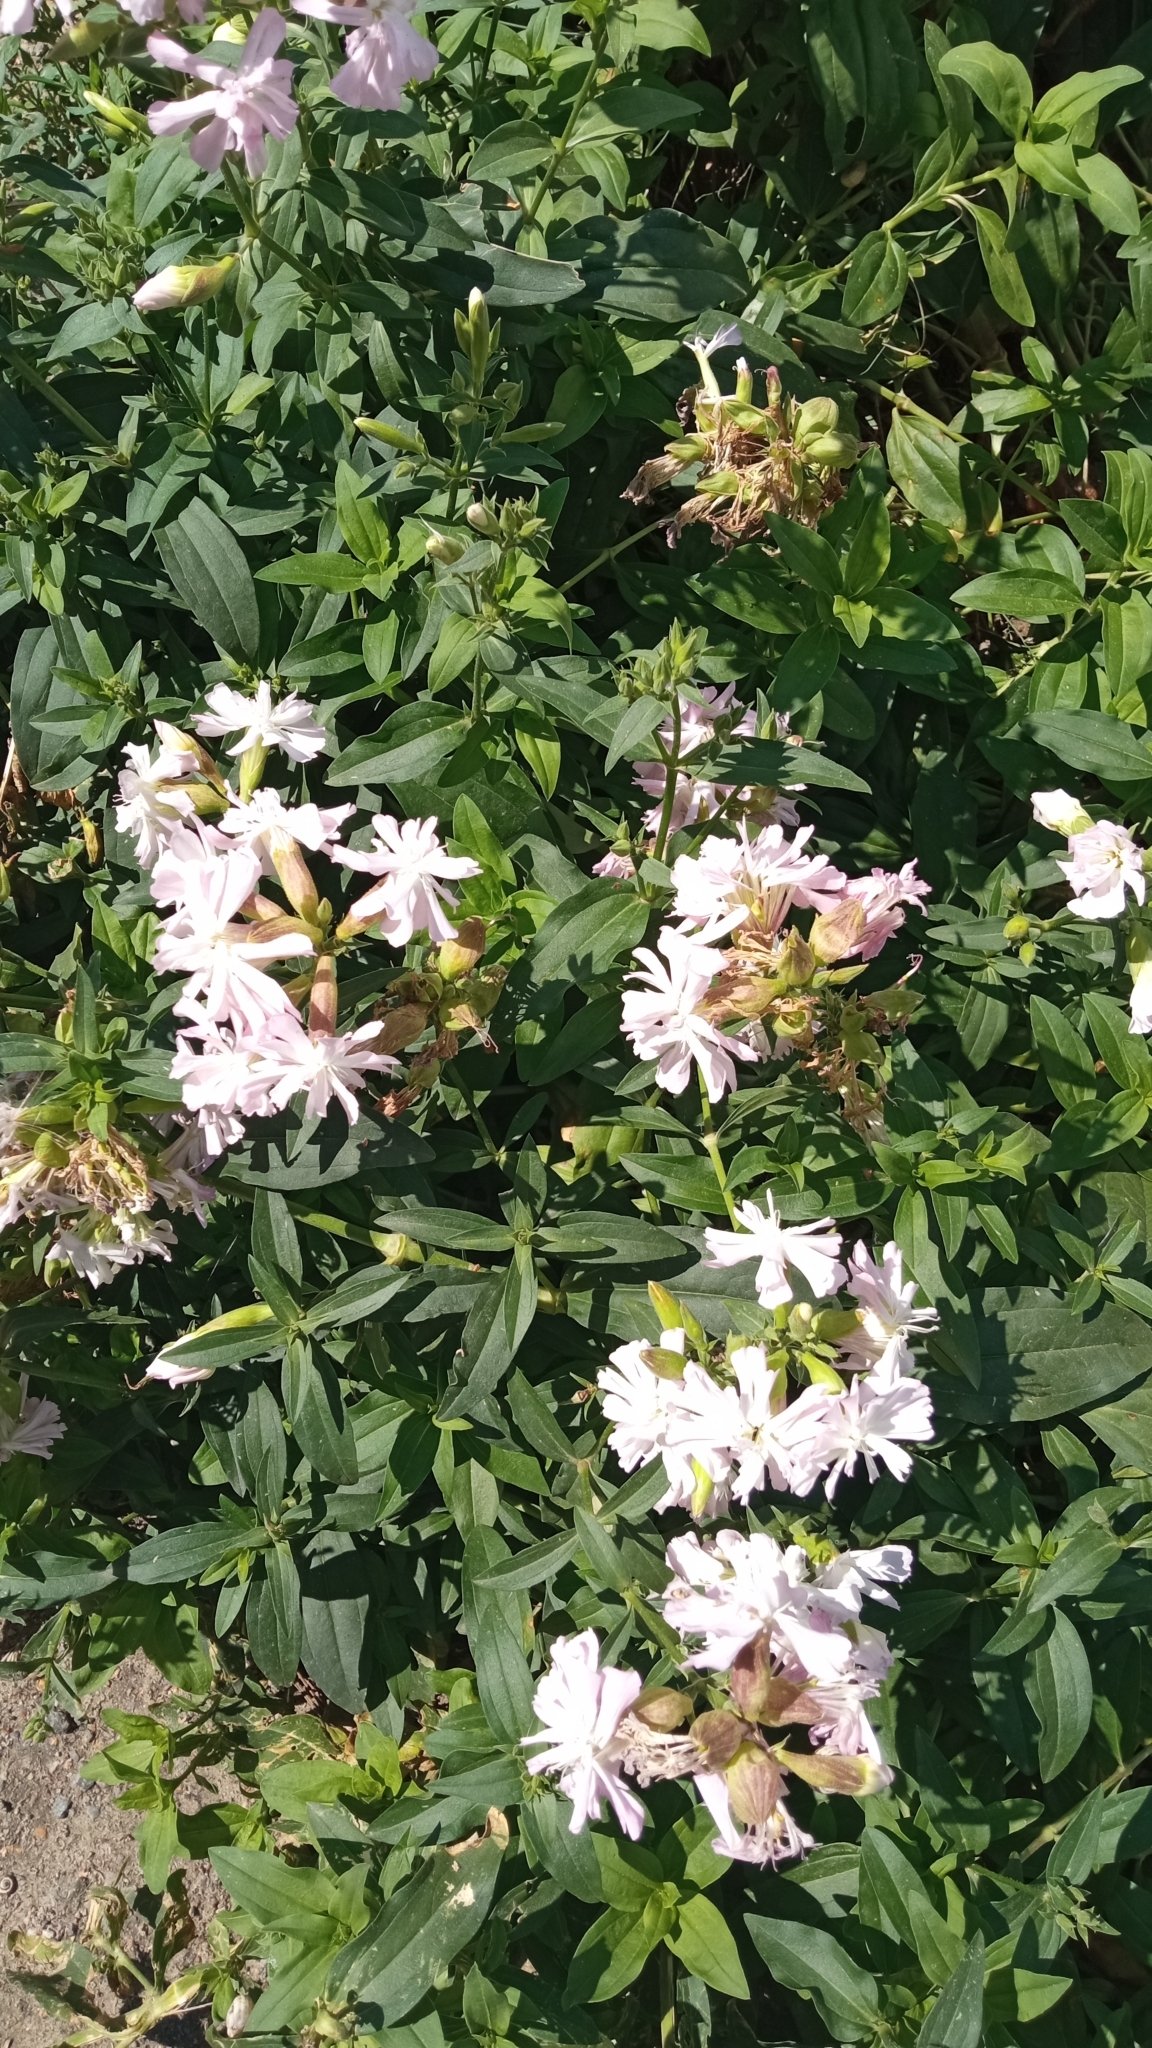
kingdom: Plantae
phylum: Tracheophyta
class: Magnoliopsida
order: Caryophyllales
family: Caryophyllaceae
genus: Saponaria
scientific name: Saponaria officinalis
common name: Soapwort
